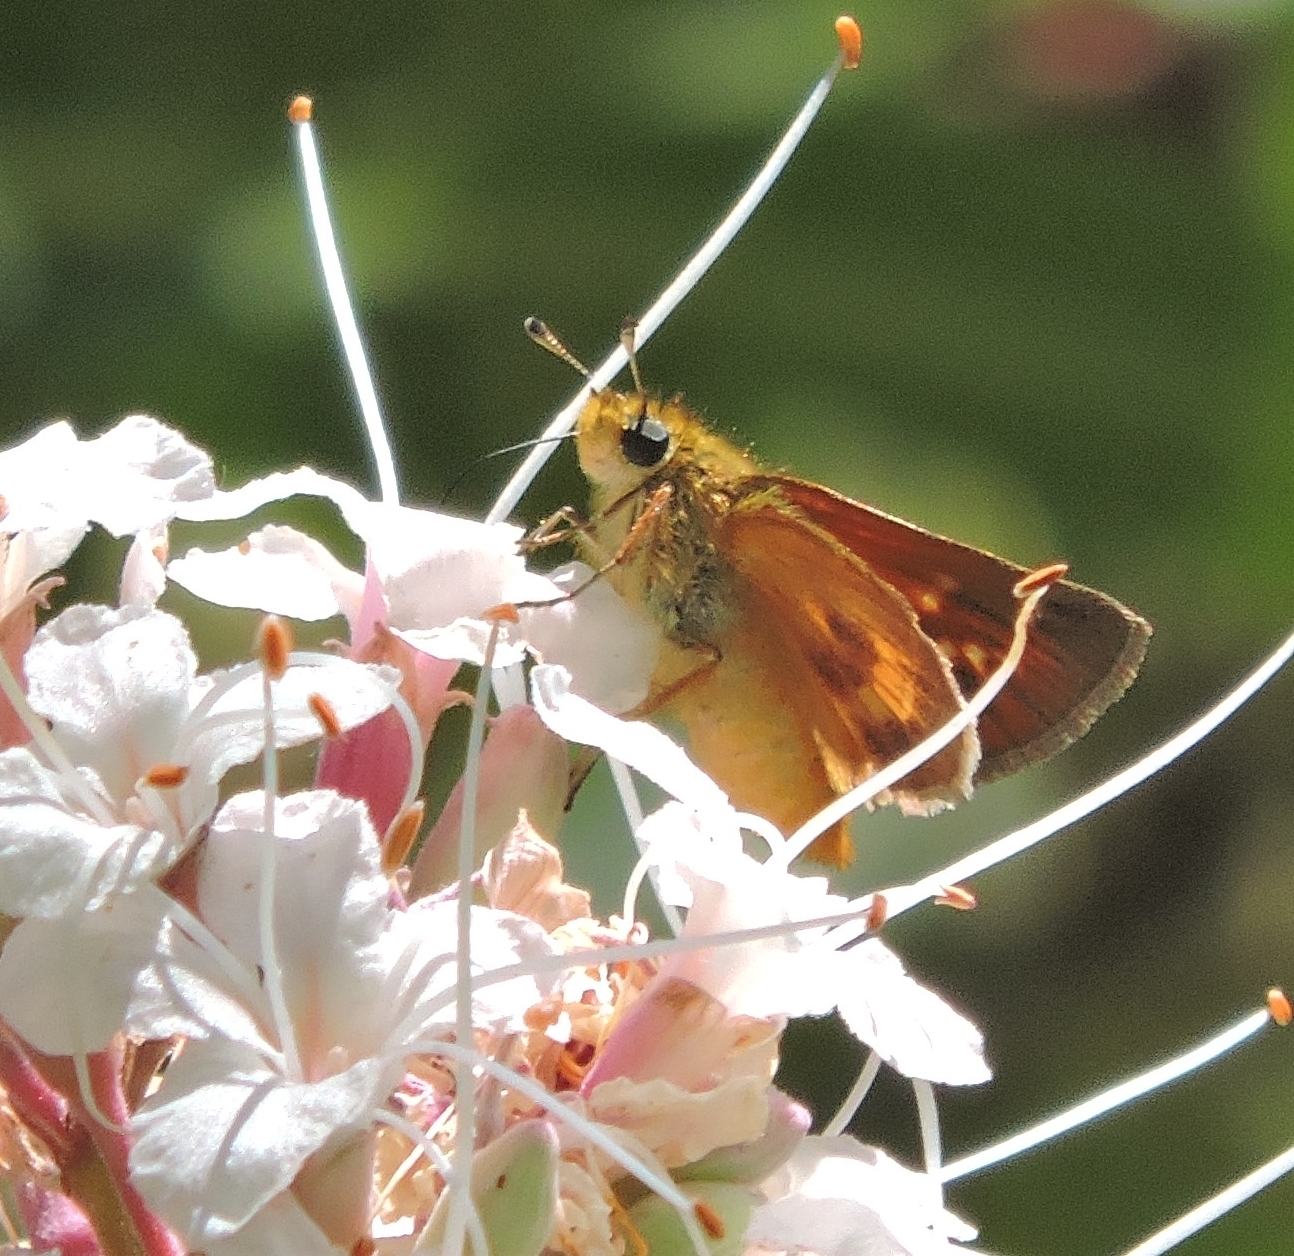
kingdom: Animalia
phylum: Arthropoda
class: Insecta
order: Lepidoptera
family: Hesperiidae
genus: Ochlodes
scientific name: Ochlodes agricola
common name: Rural skipper
